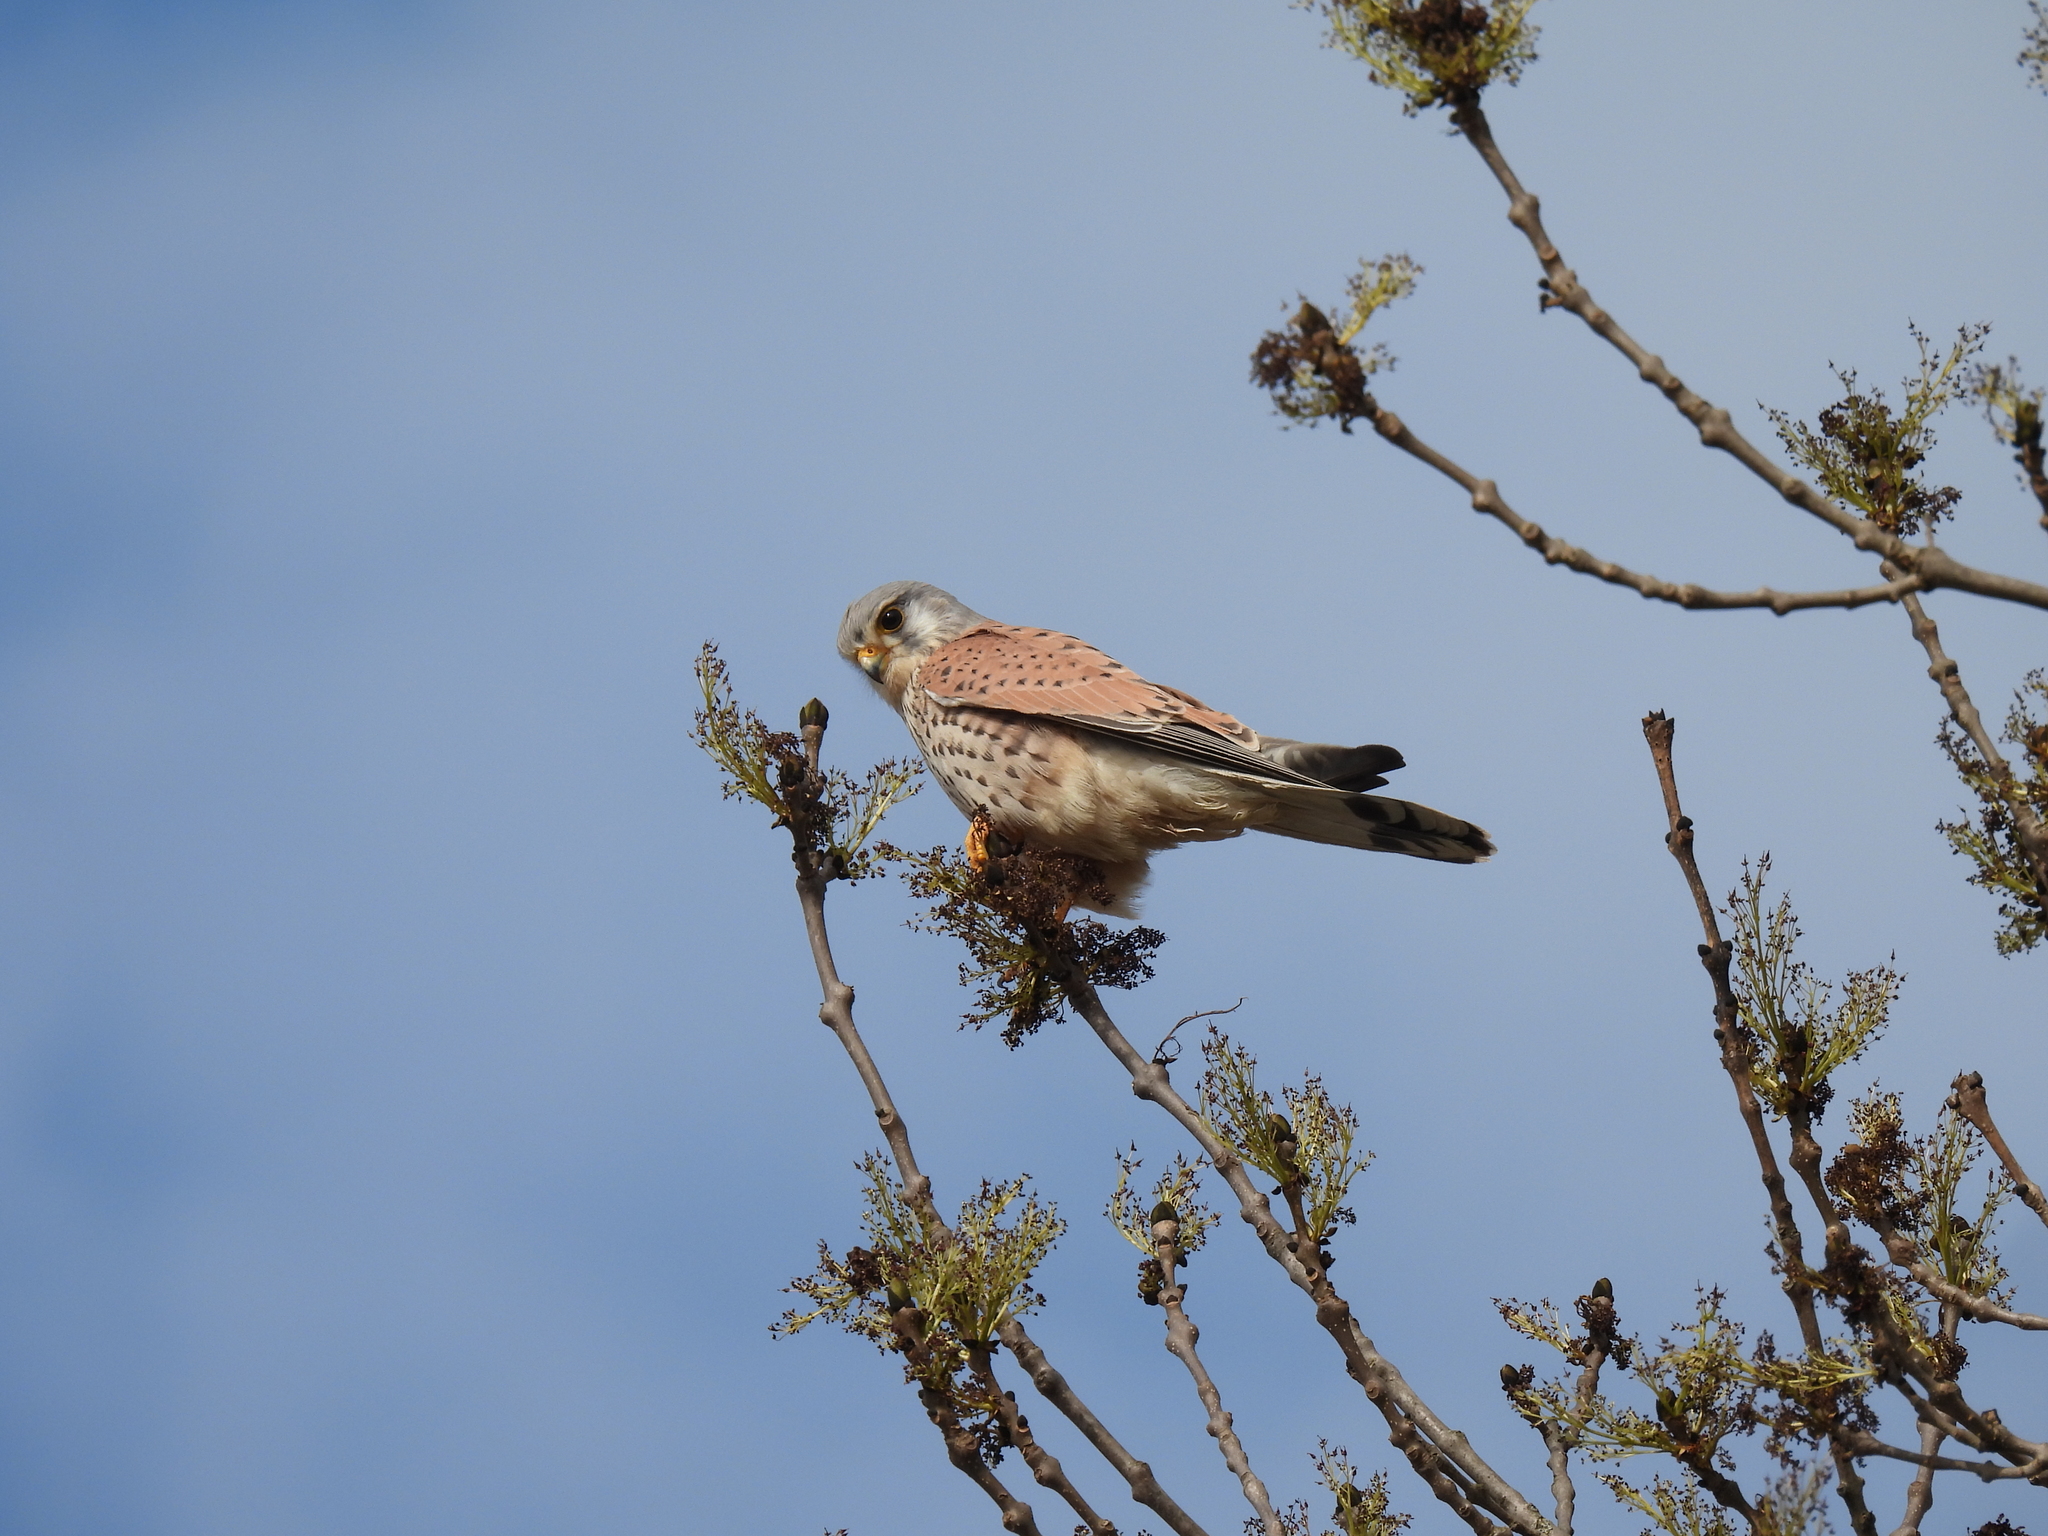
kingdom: Animalia
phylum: Chordata
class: Aves
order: Falconiformes
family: Falconidae
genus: Falco
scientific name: Falco tinnunculus
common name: Common kestrel
